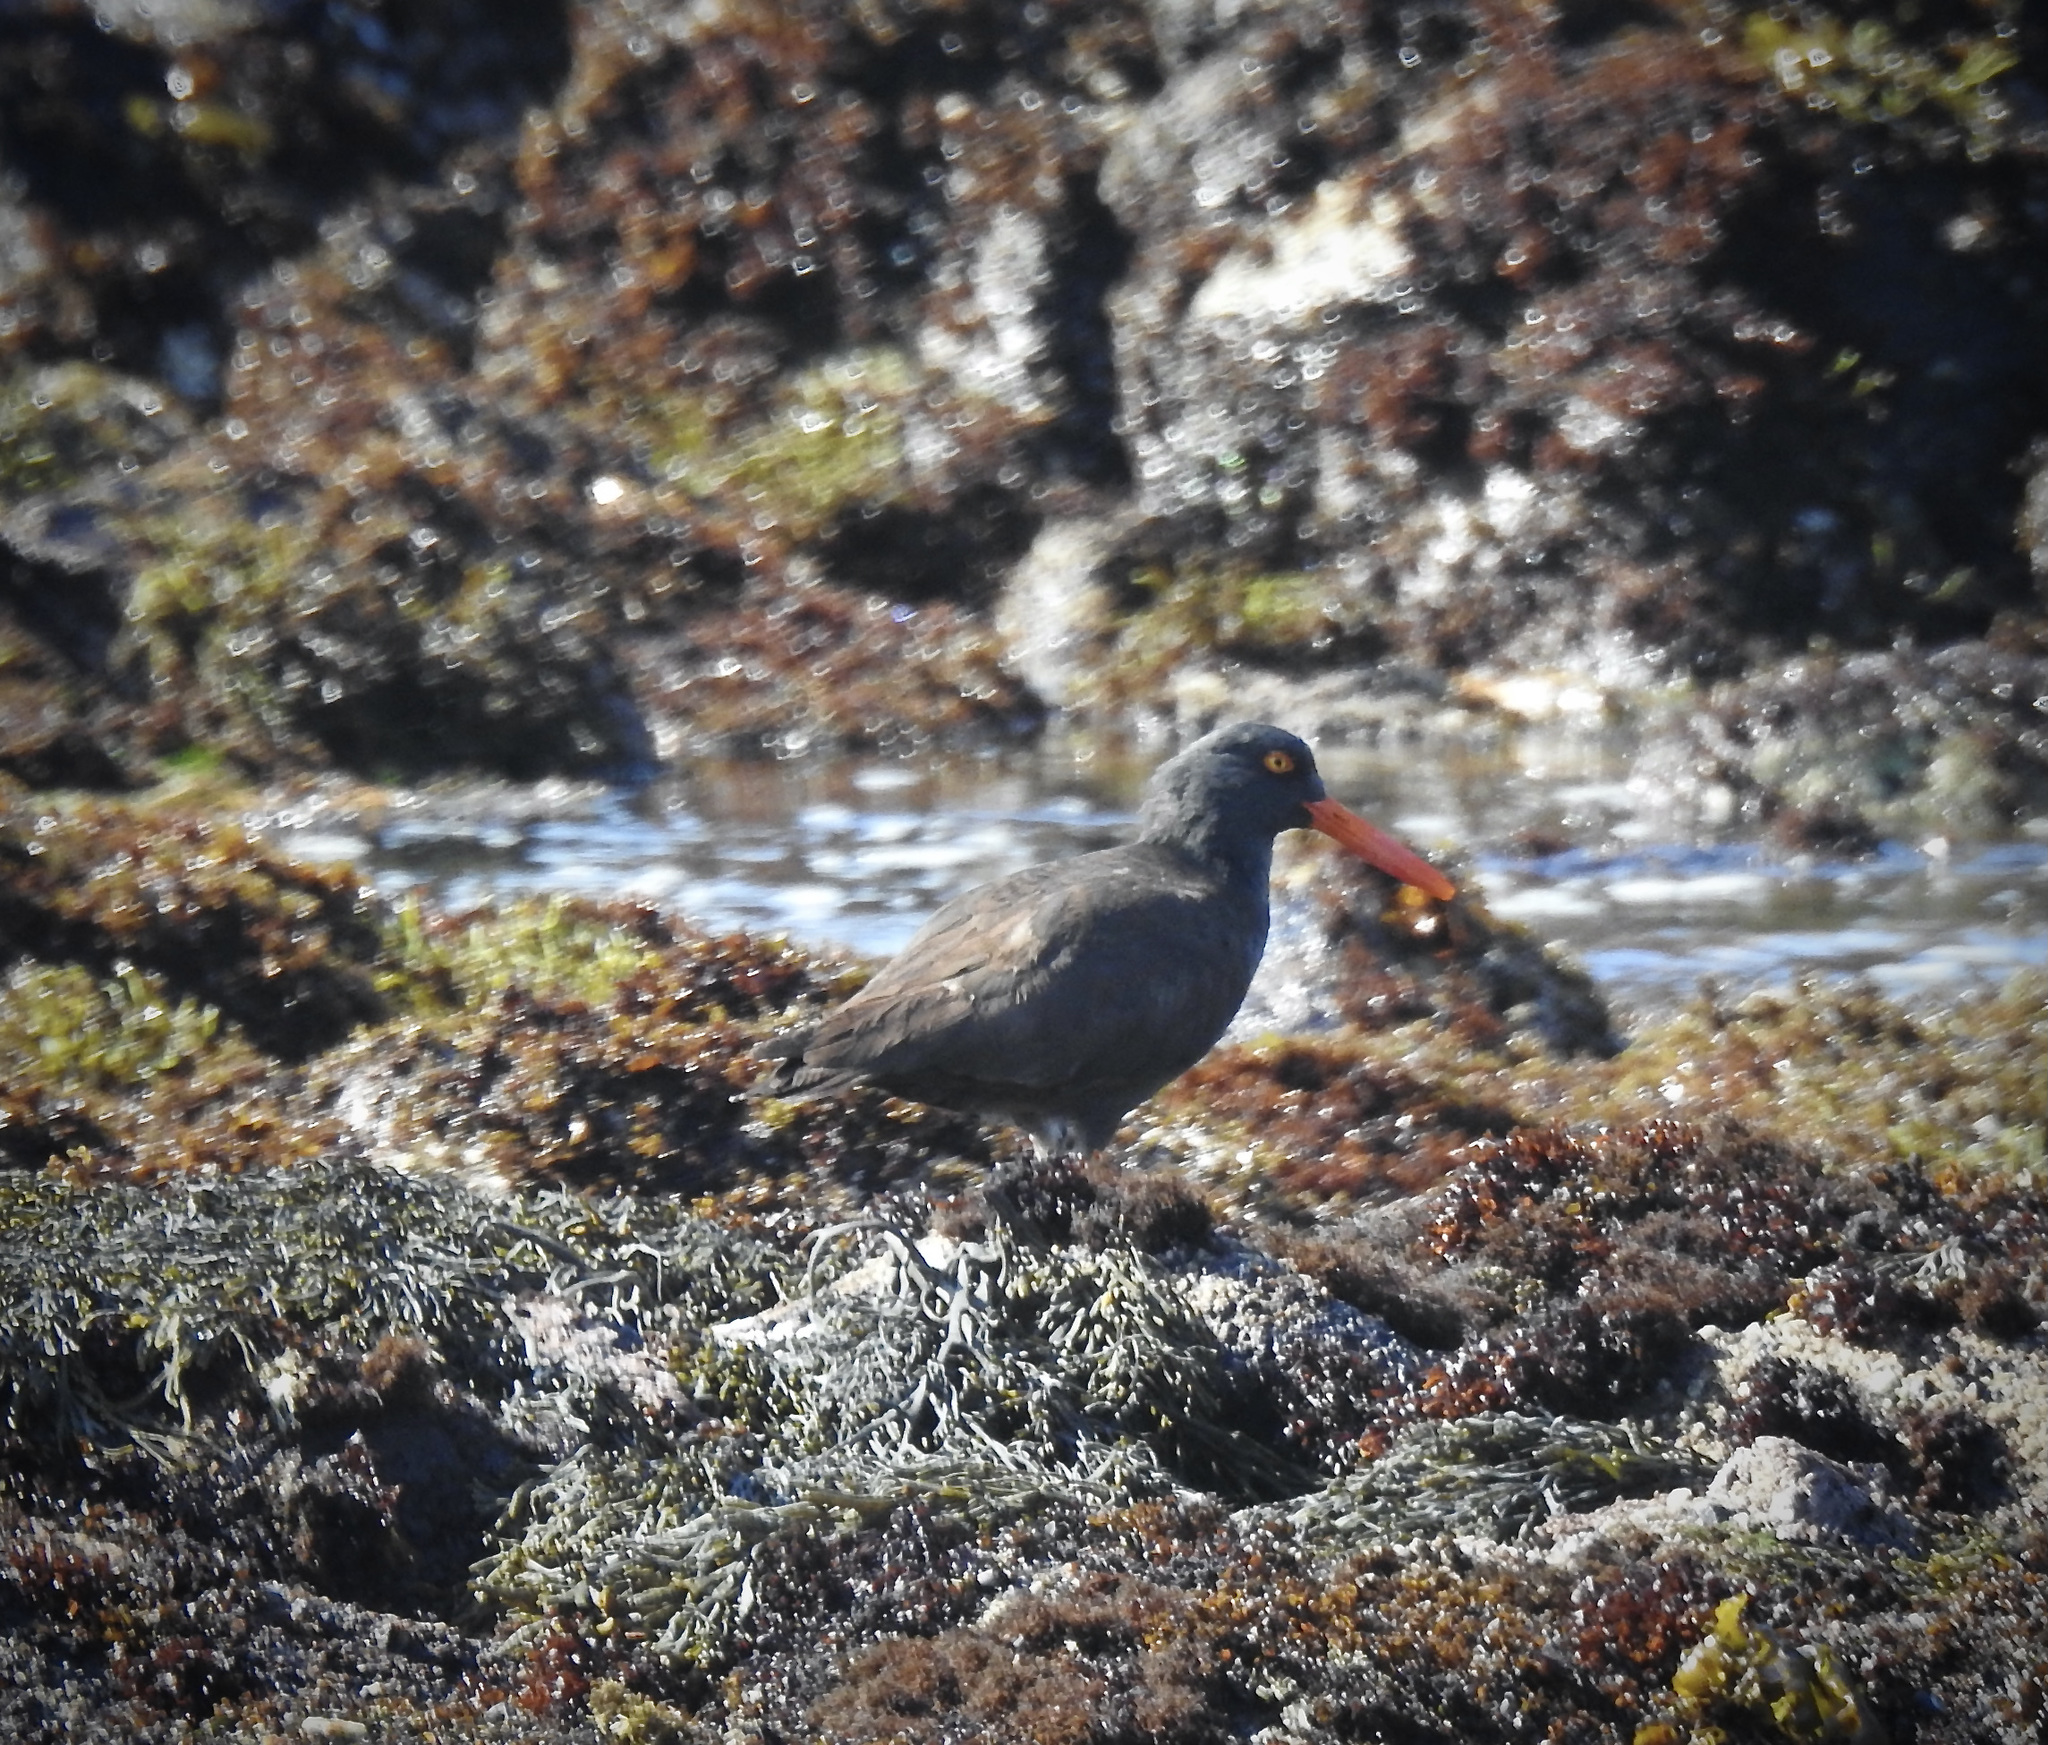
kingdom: Animalia
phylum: Chordata
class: Aves
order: Charadriiformes
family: Haematopodidae
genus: Haematopus
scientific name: Haematopus bachmani
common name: Black oystercatcher
